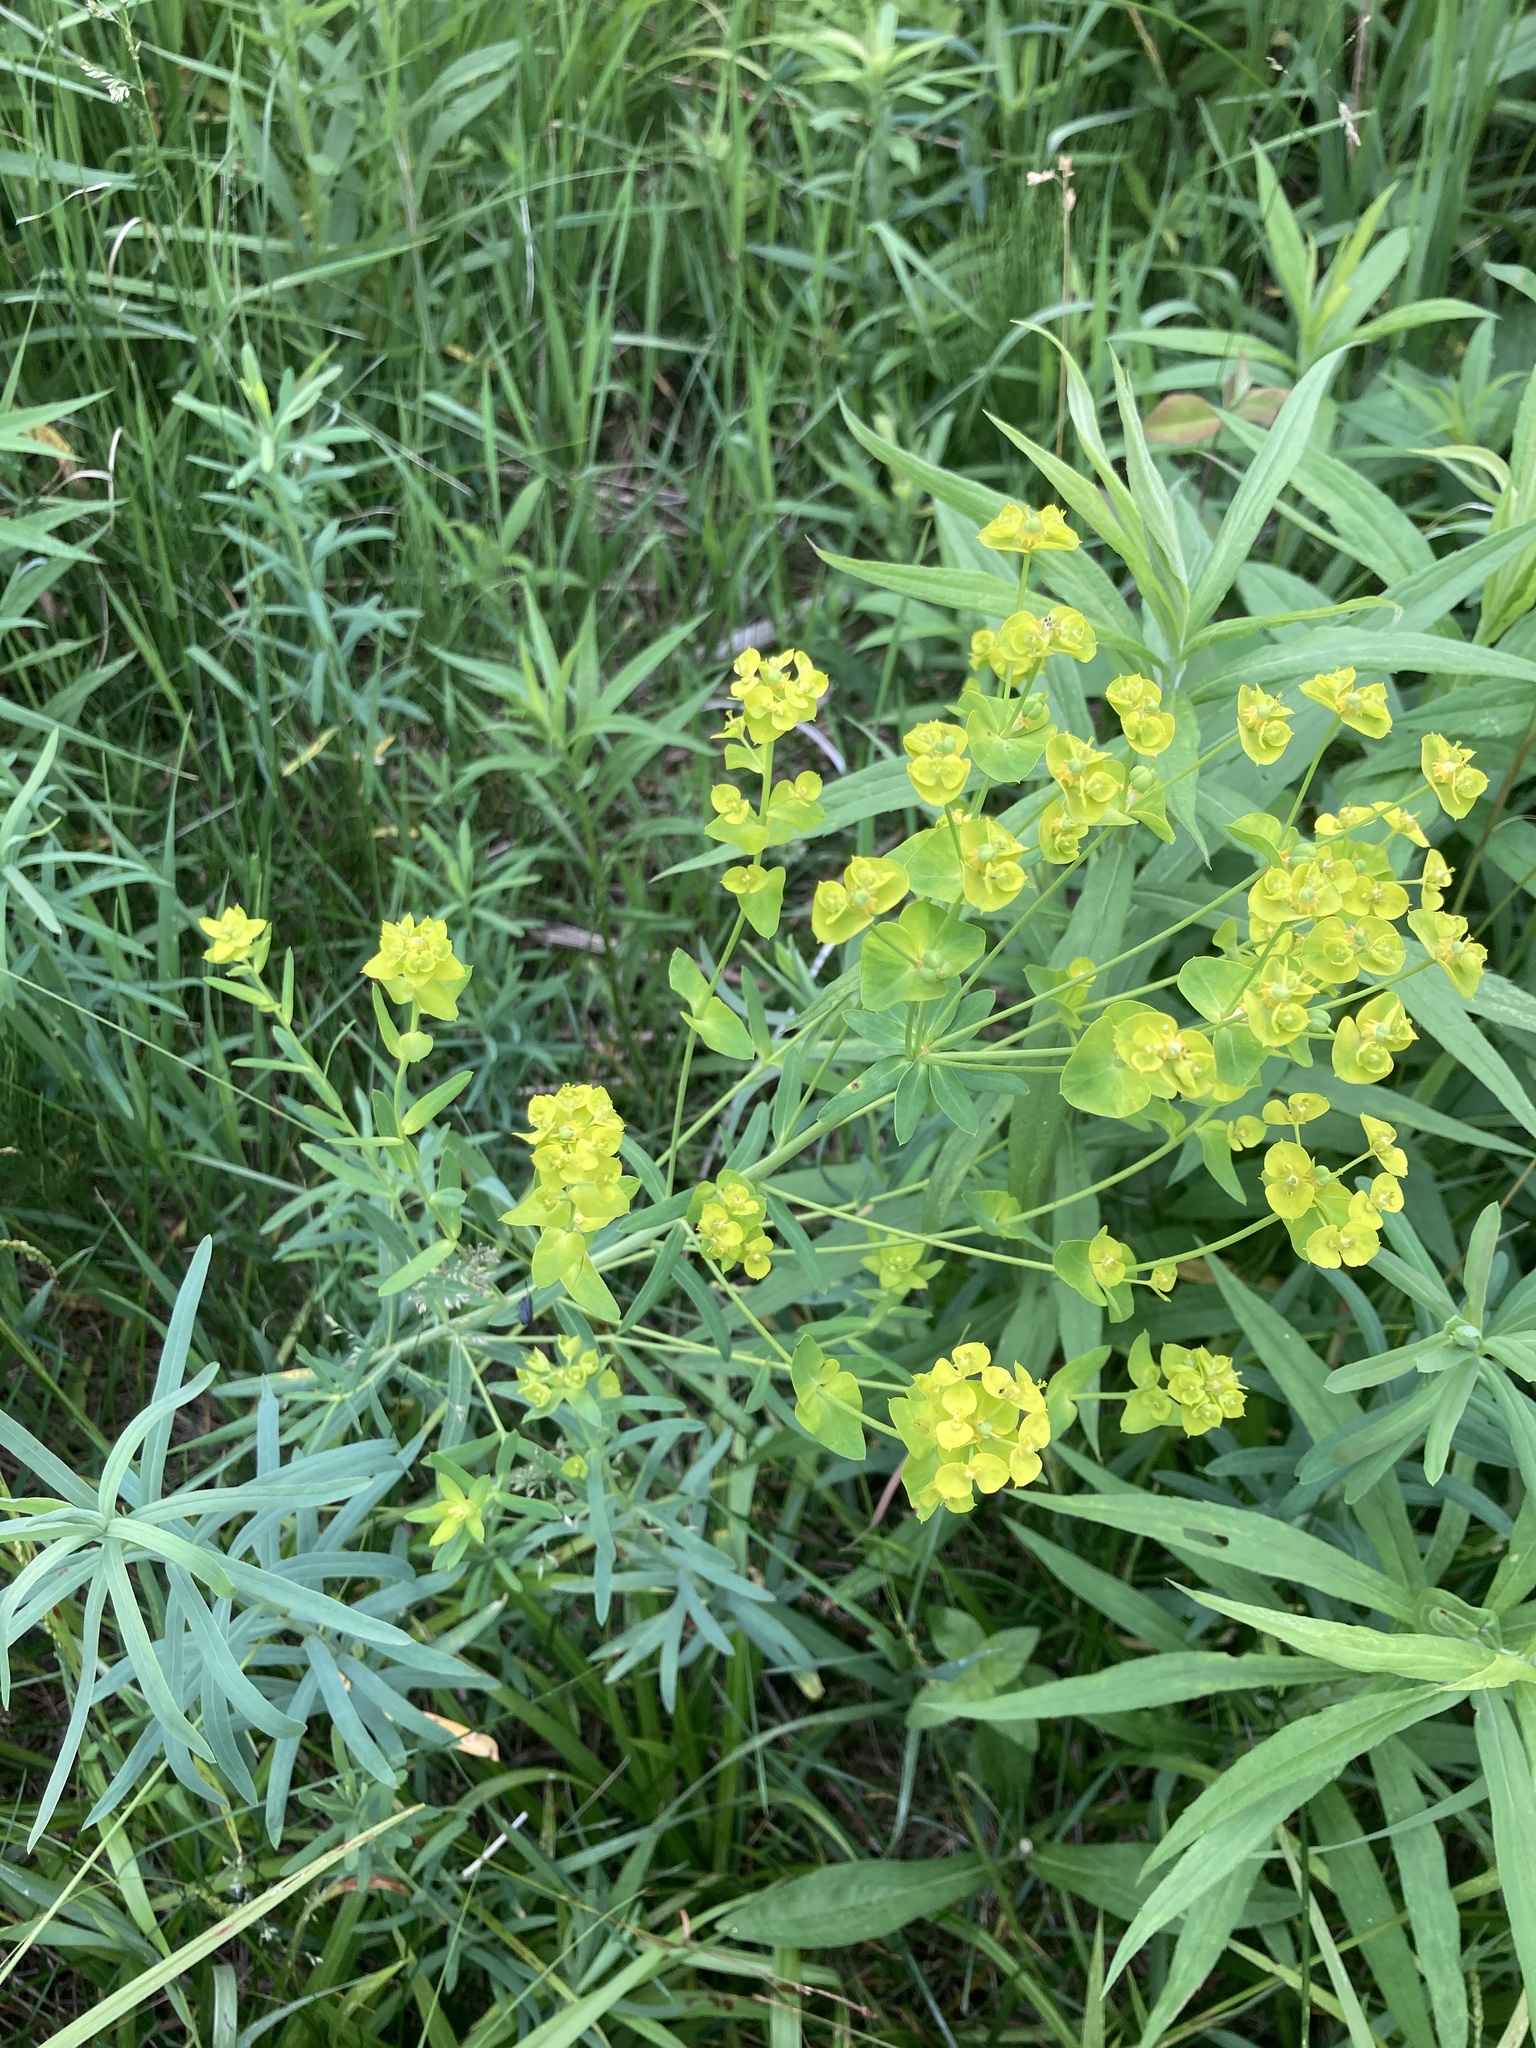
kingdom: Plantae
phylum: Tracheophyta
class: Magnoliopsida
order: Malpighiales
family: Euphorbiaceae
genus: Euphorbia
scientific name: Euphorbia virgata
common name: Leafy spurge
